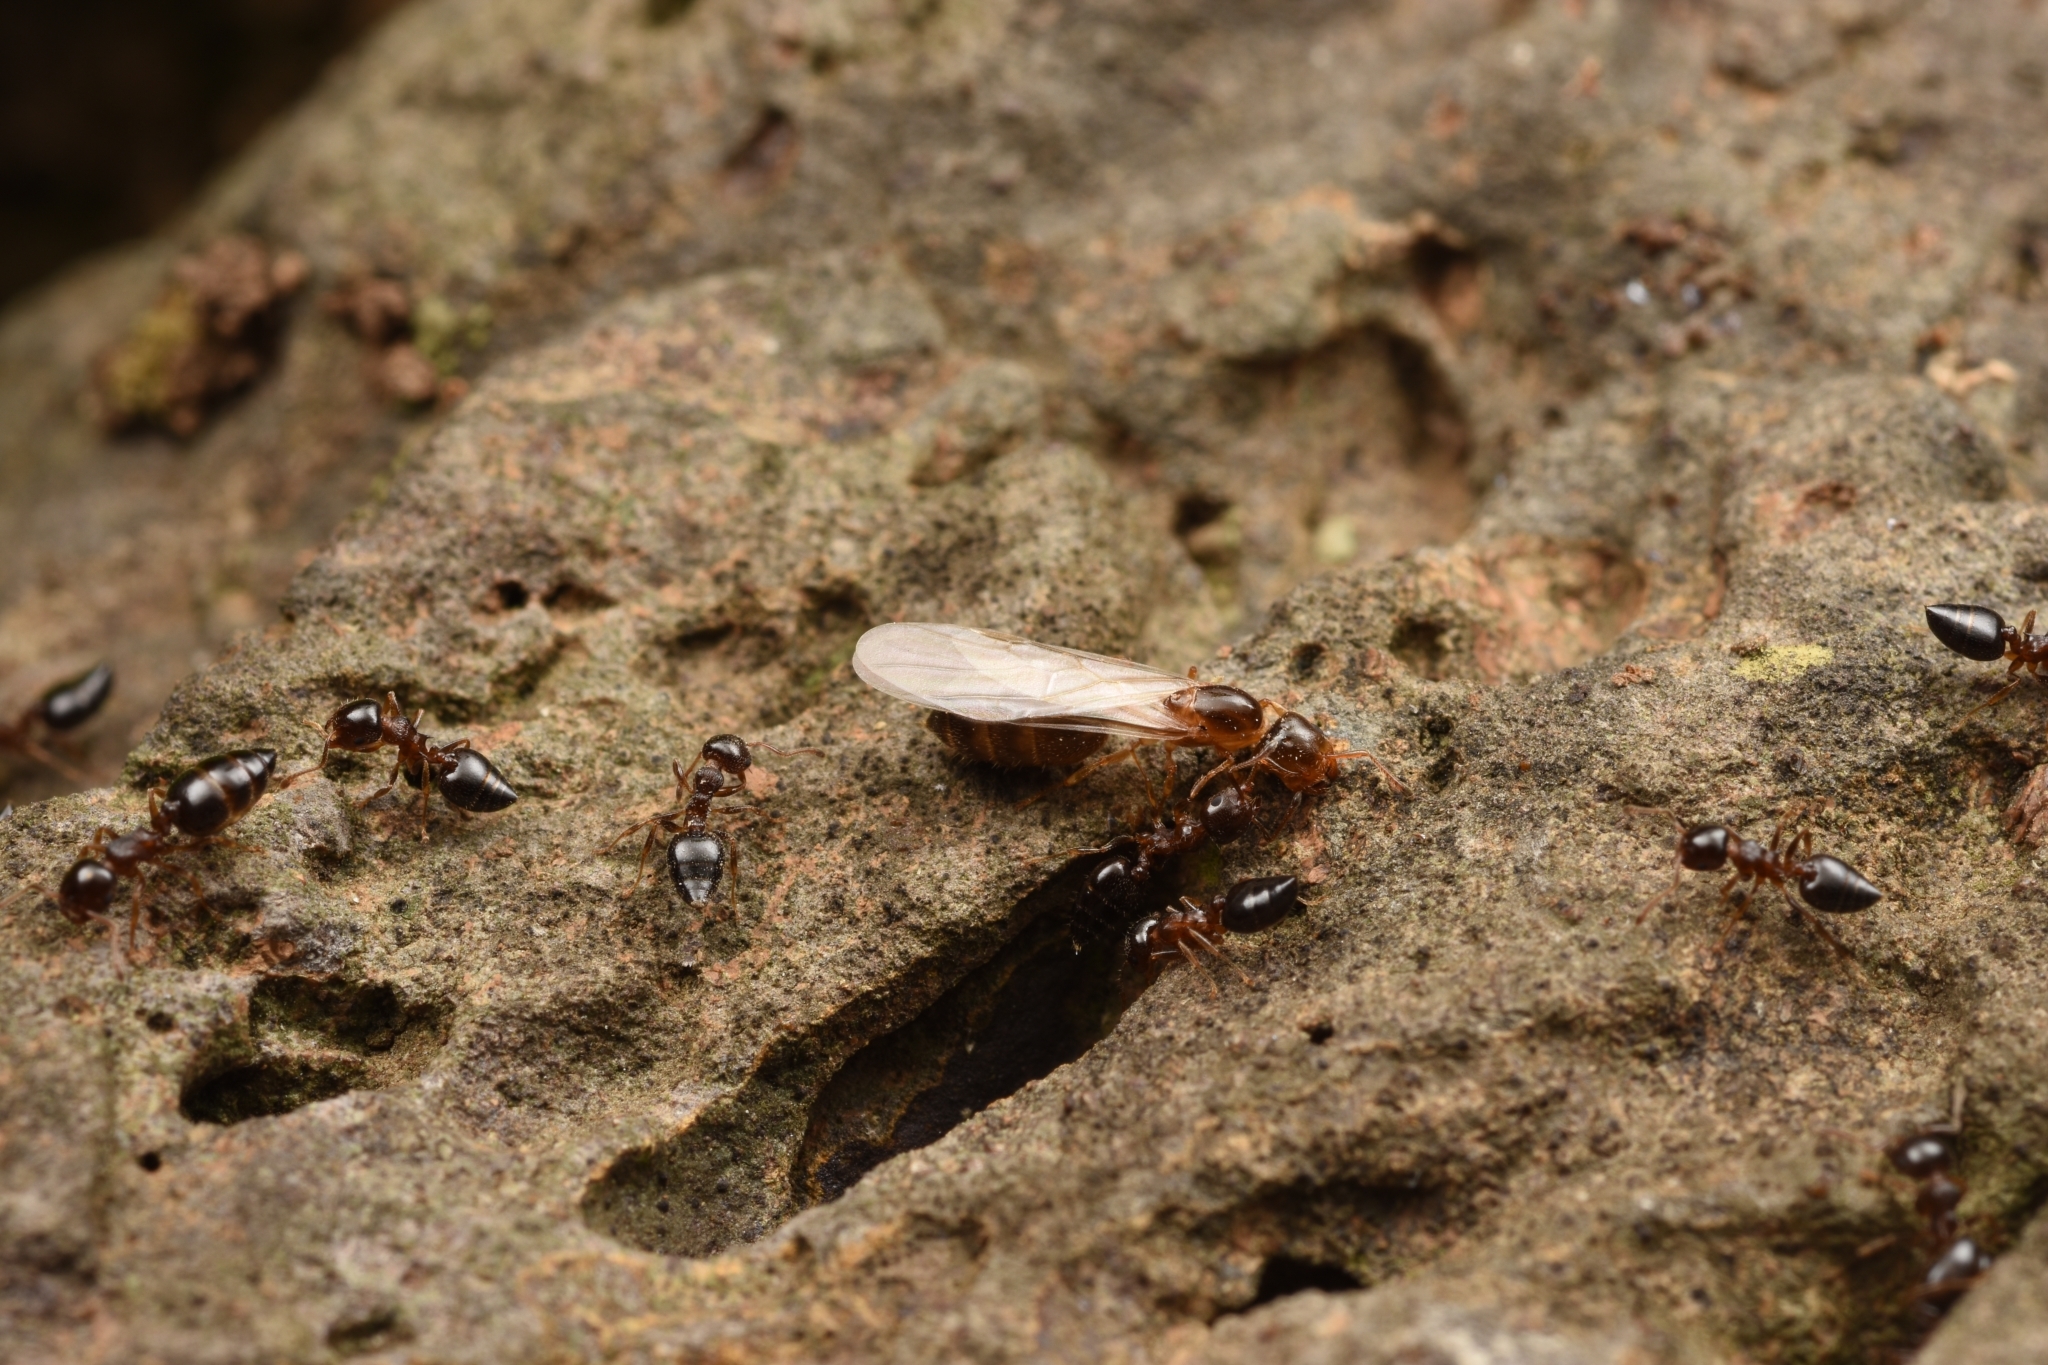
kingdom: Animalia
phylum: Arthropoda
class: Insecta
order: Hymenoptera
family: Formicidae
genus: Crematogaster
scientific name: Crematogaster
